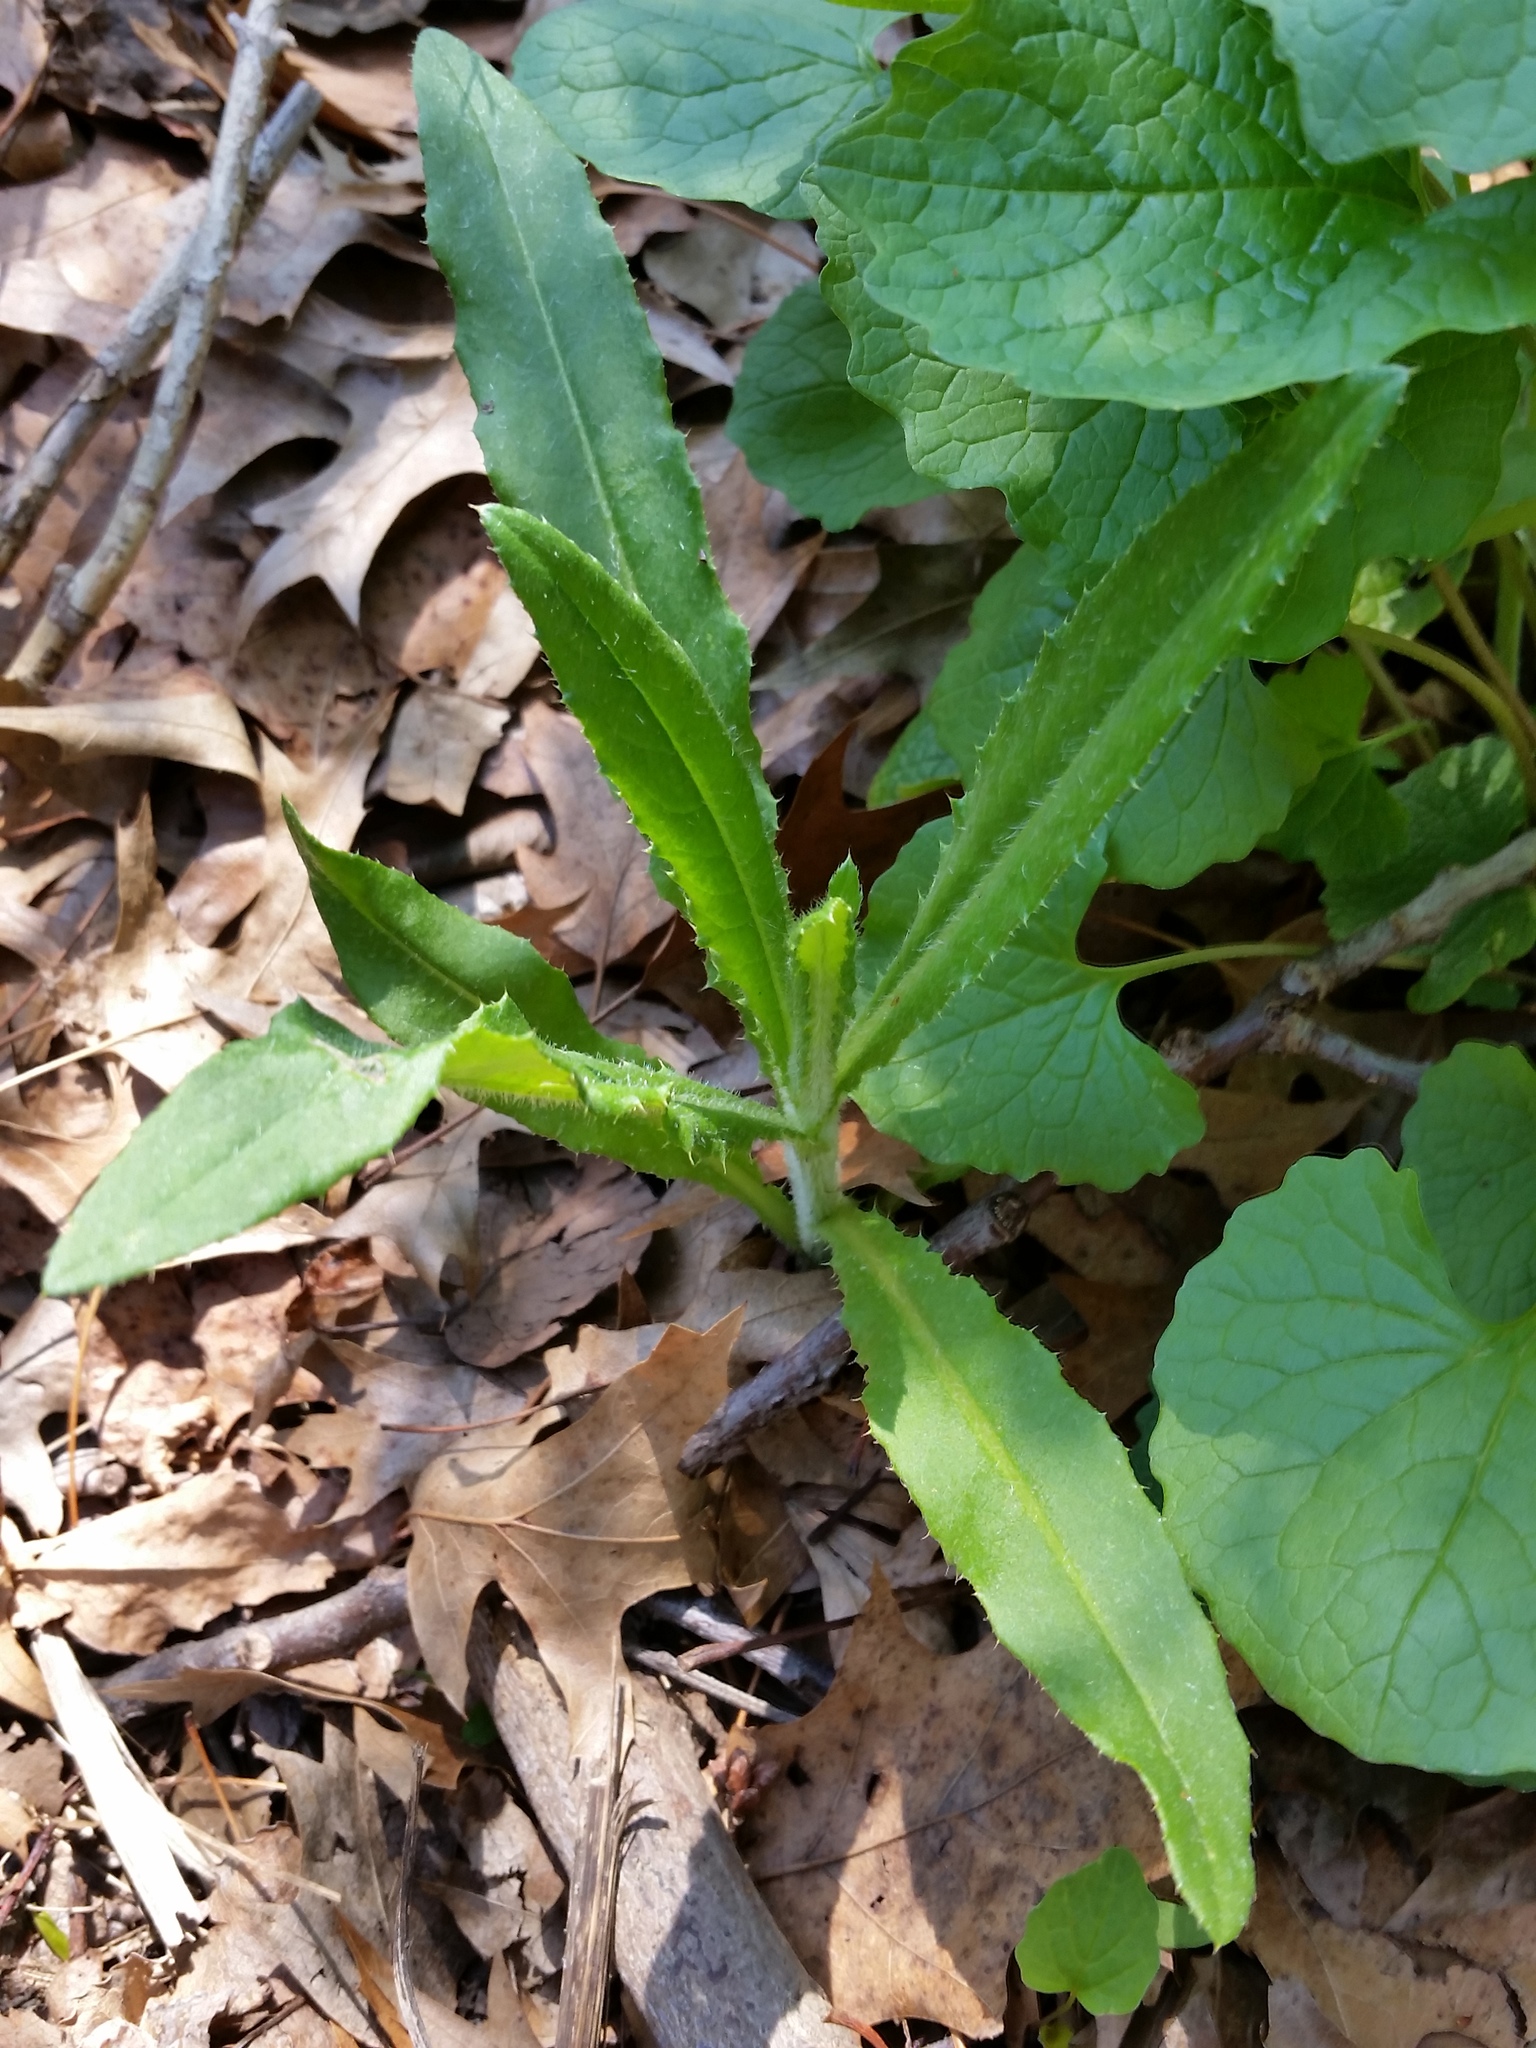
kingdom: Plantae
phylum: Tracheophyta
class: Magnoliopsida
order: Asterales
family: Asteraceae
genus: Cirsium
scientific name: Cirsium arvense
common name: Creeping thistle
